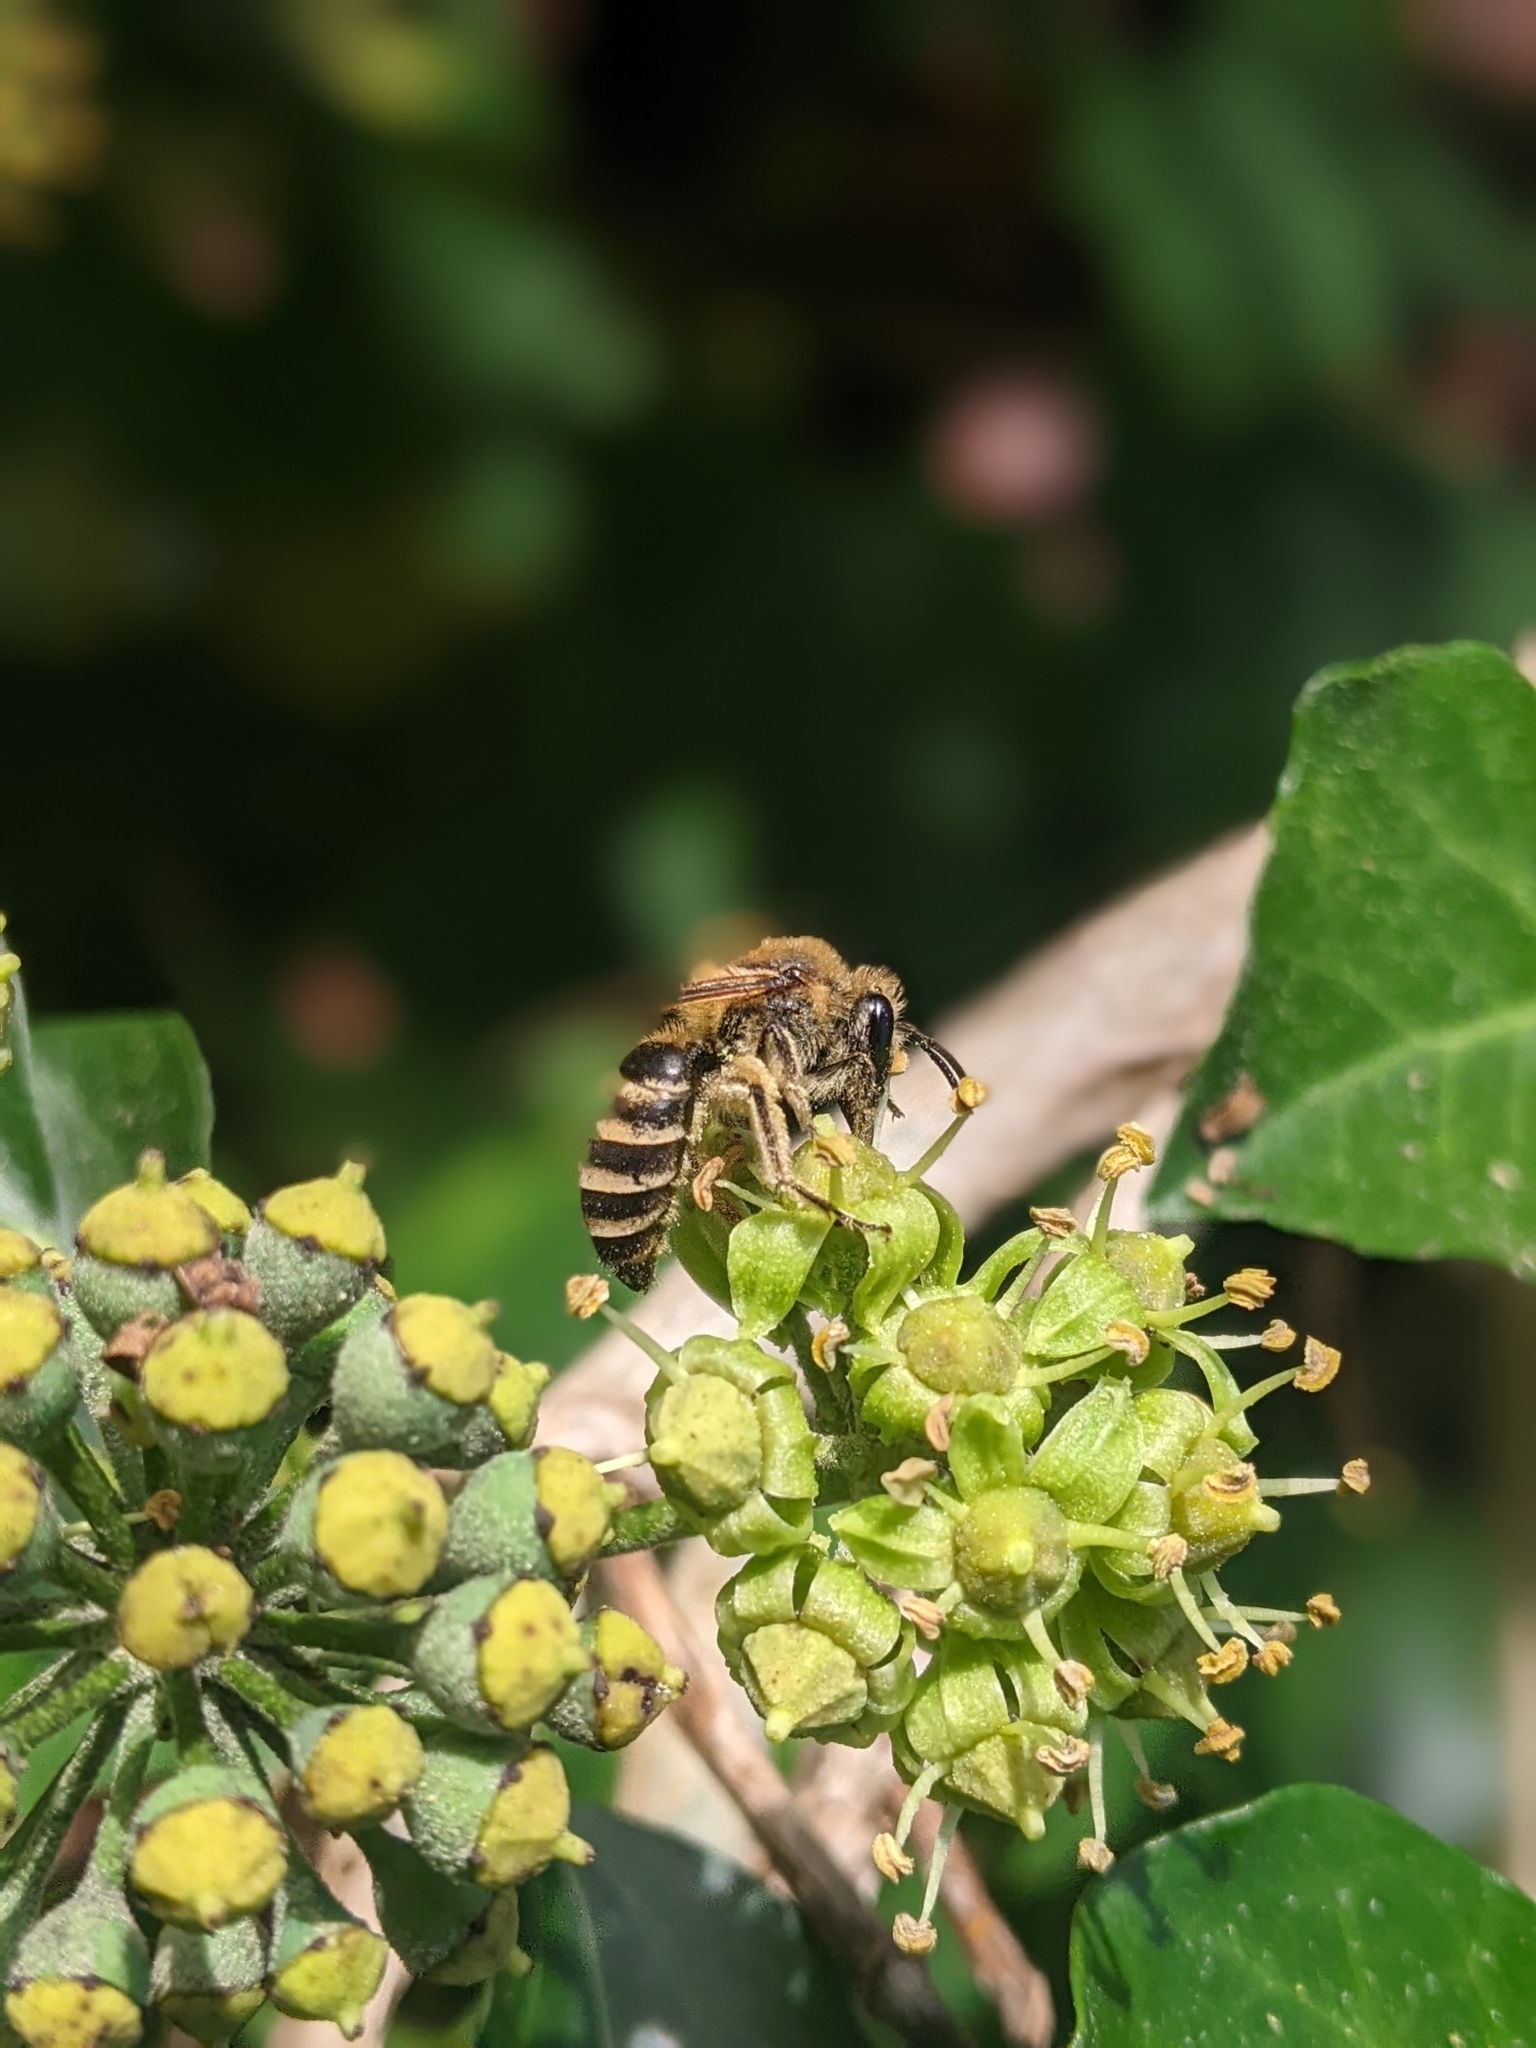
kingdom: Animalia
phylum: Arthropoda
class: Insecta
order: Hymenoptera
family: Colletidae
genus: Colletes
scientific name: Colletes hederae
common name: Ivy bee
